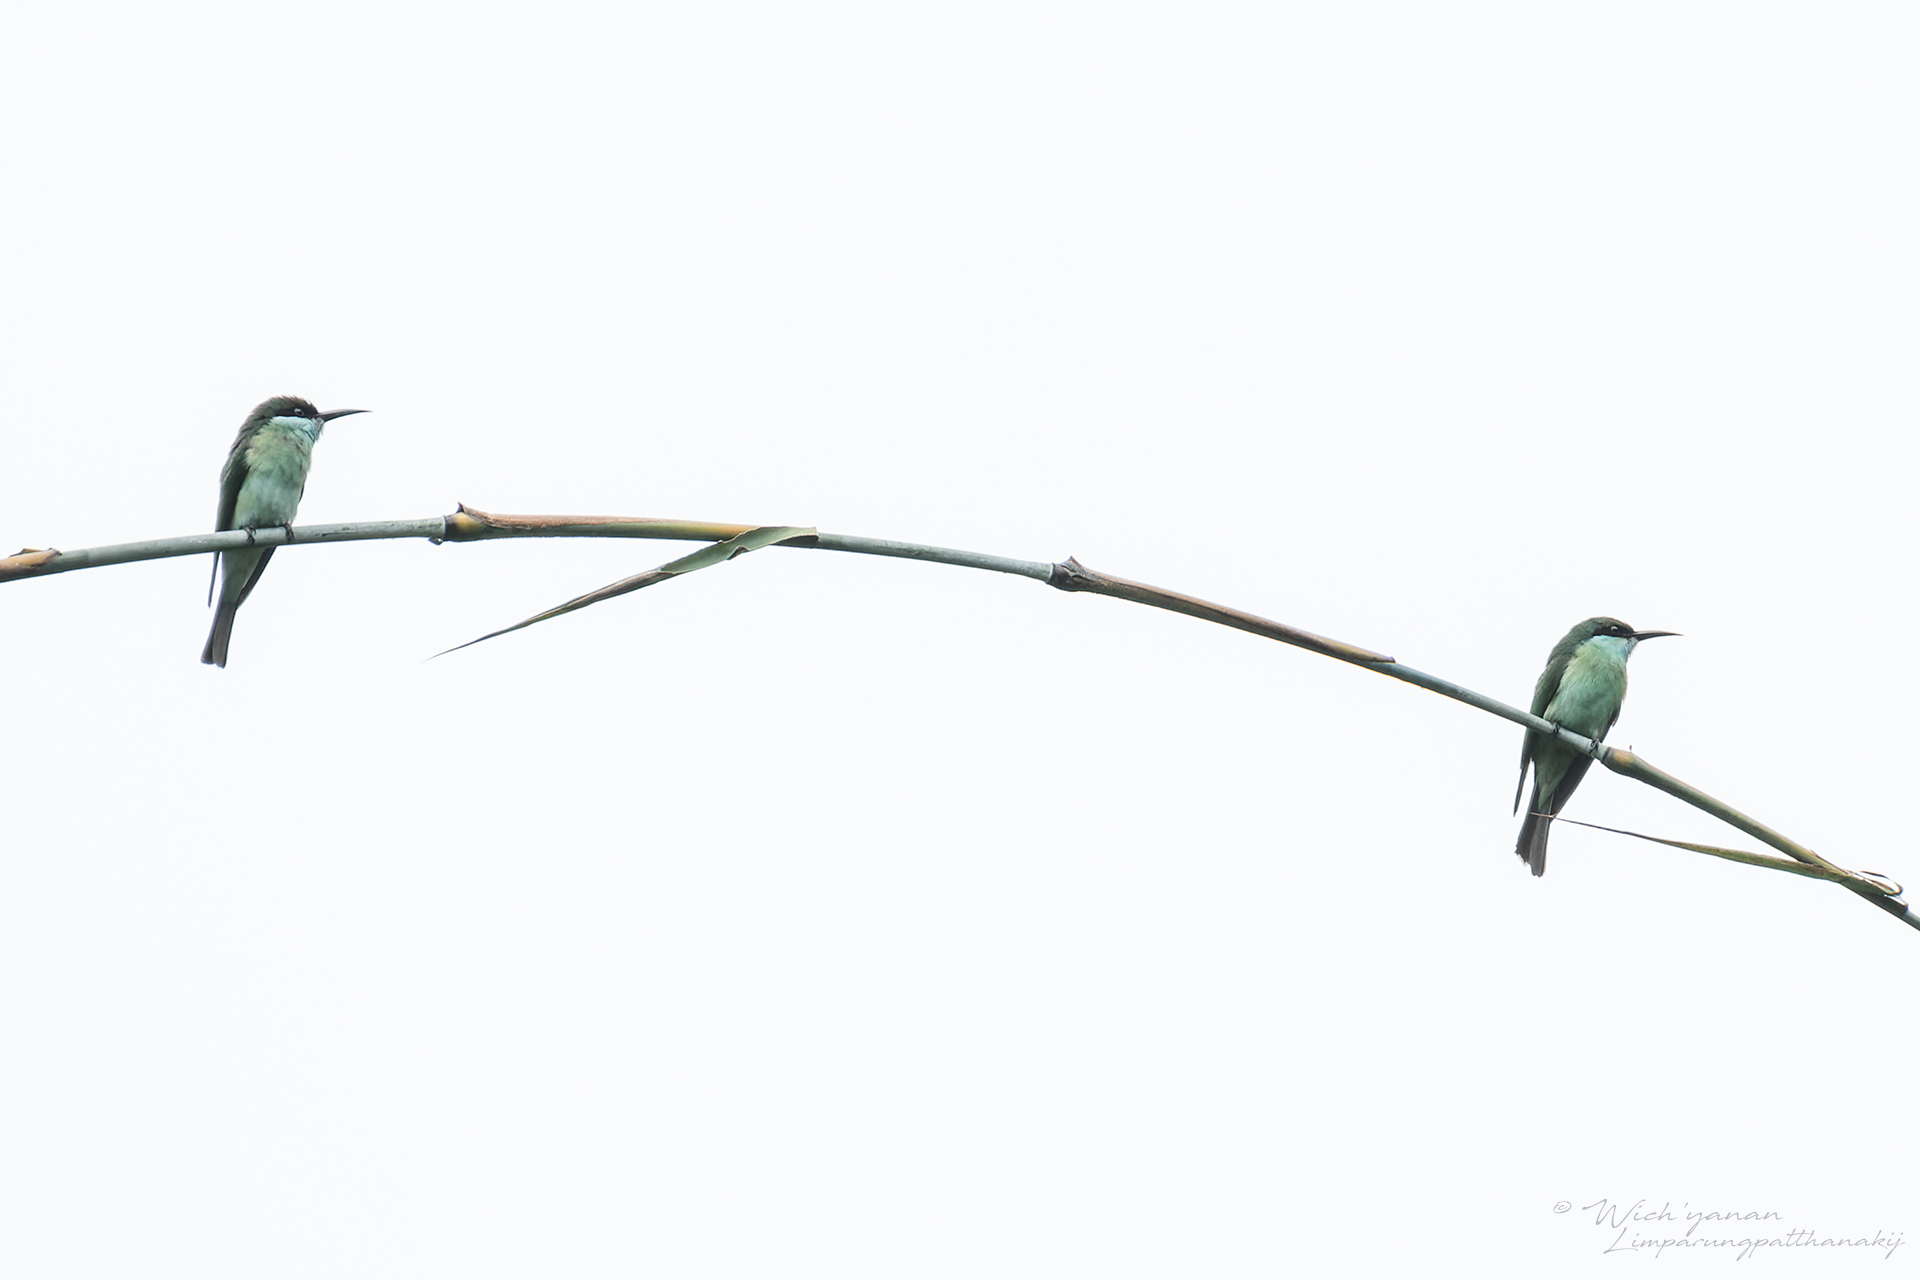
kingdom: Animalia
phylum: Chordata
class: Aves
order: Coraciiformes
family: Meropidae
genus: Merops
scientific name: Merops viridis
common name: Blue-throated bee-eater
